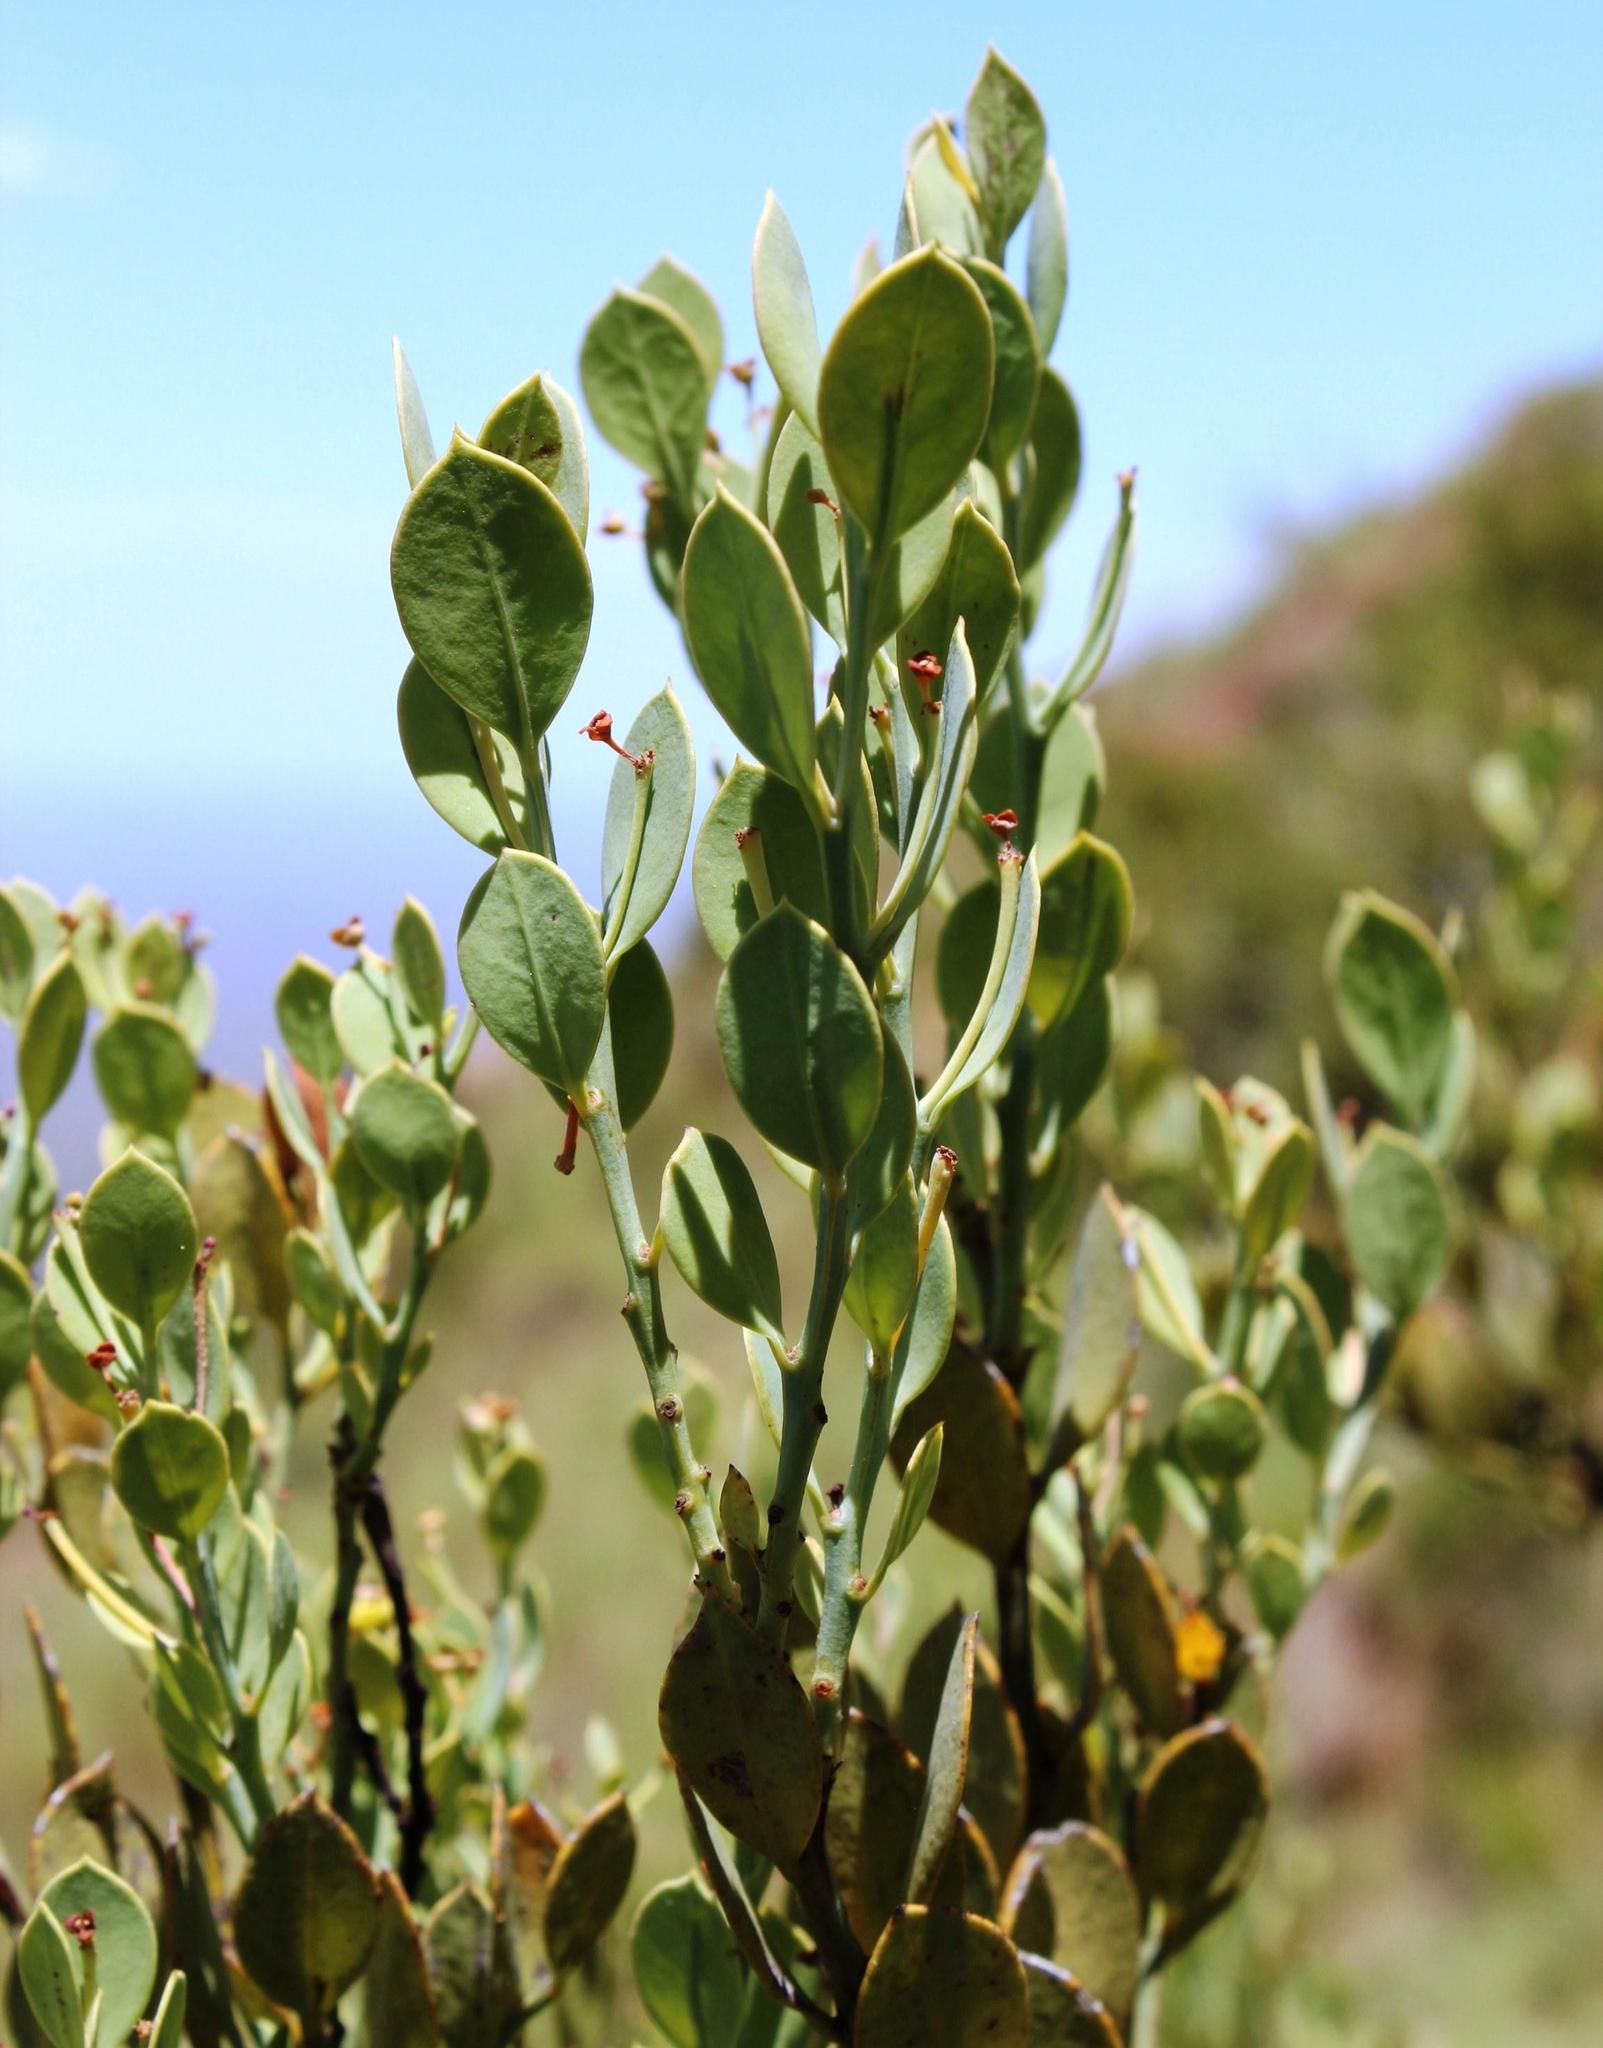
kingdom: Plantae
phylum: Tracheophyta
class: Magnoliopsida
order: Santalales
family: Santalaceae
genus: Osyris
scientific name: Osyris lanceolata
